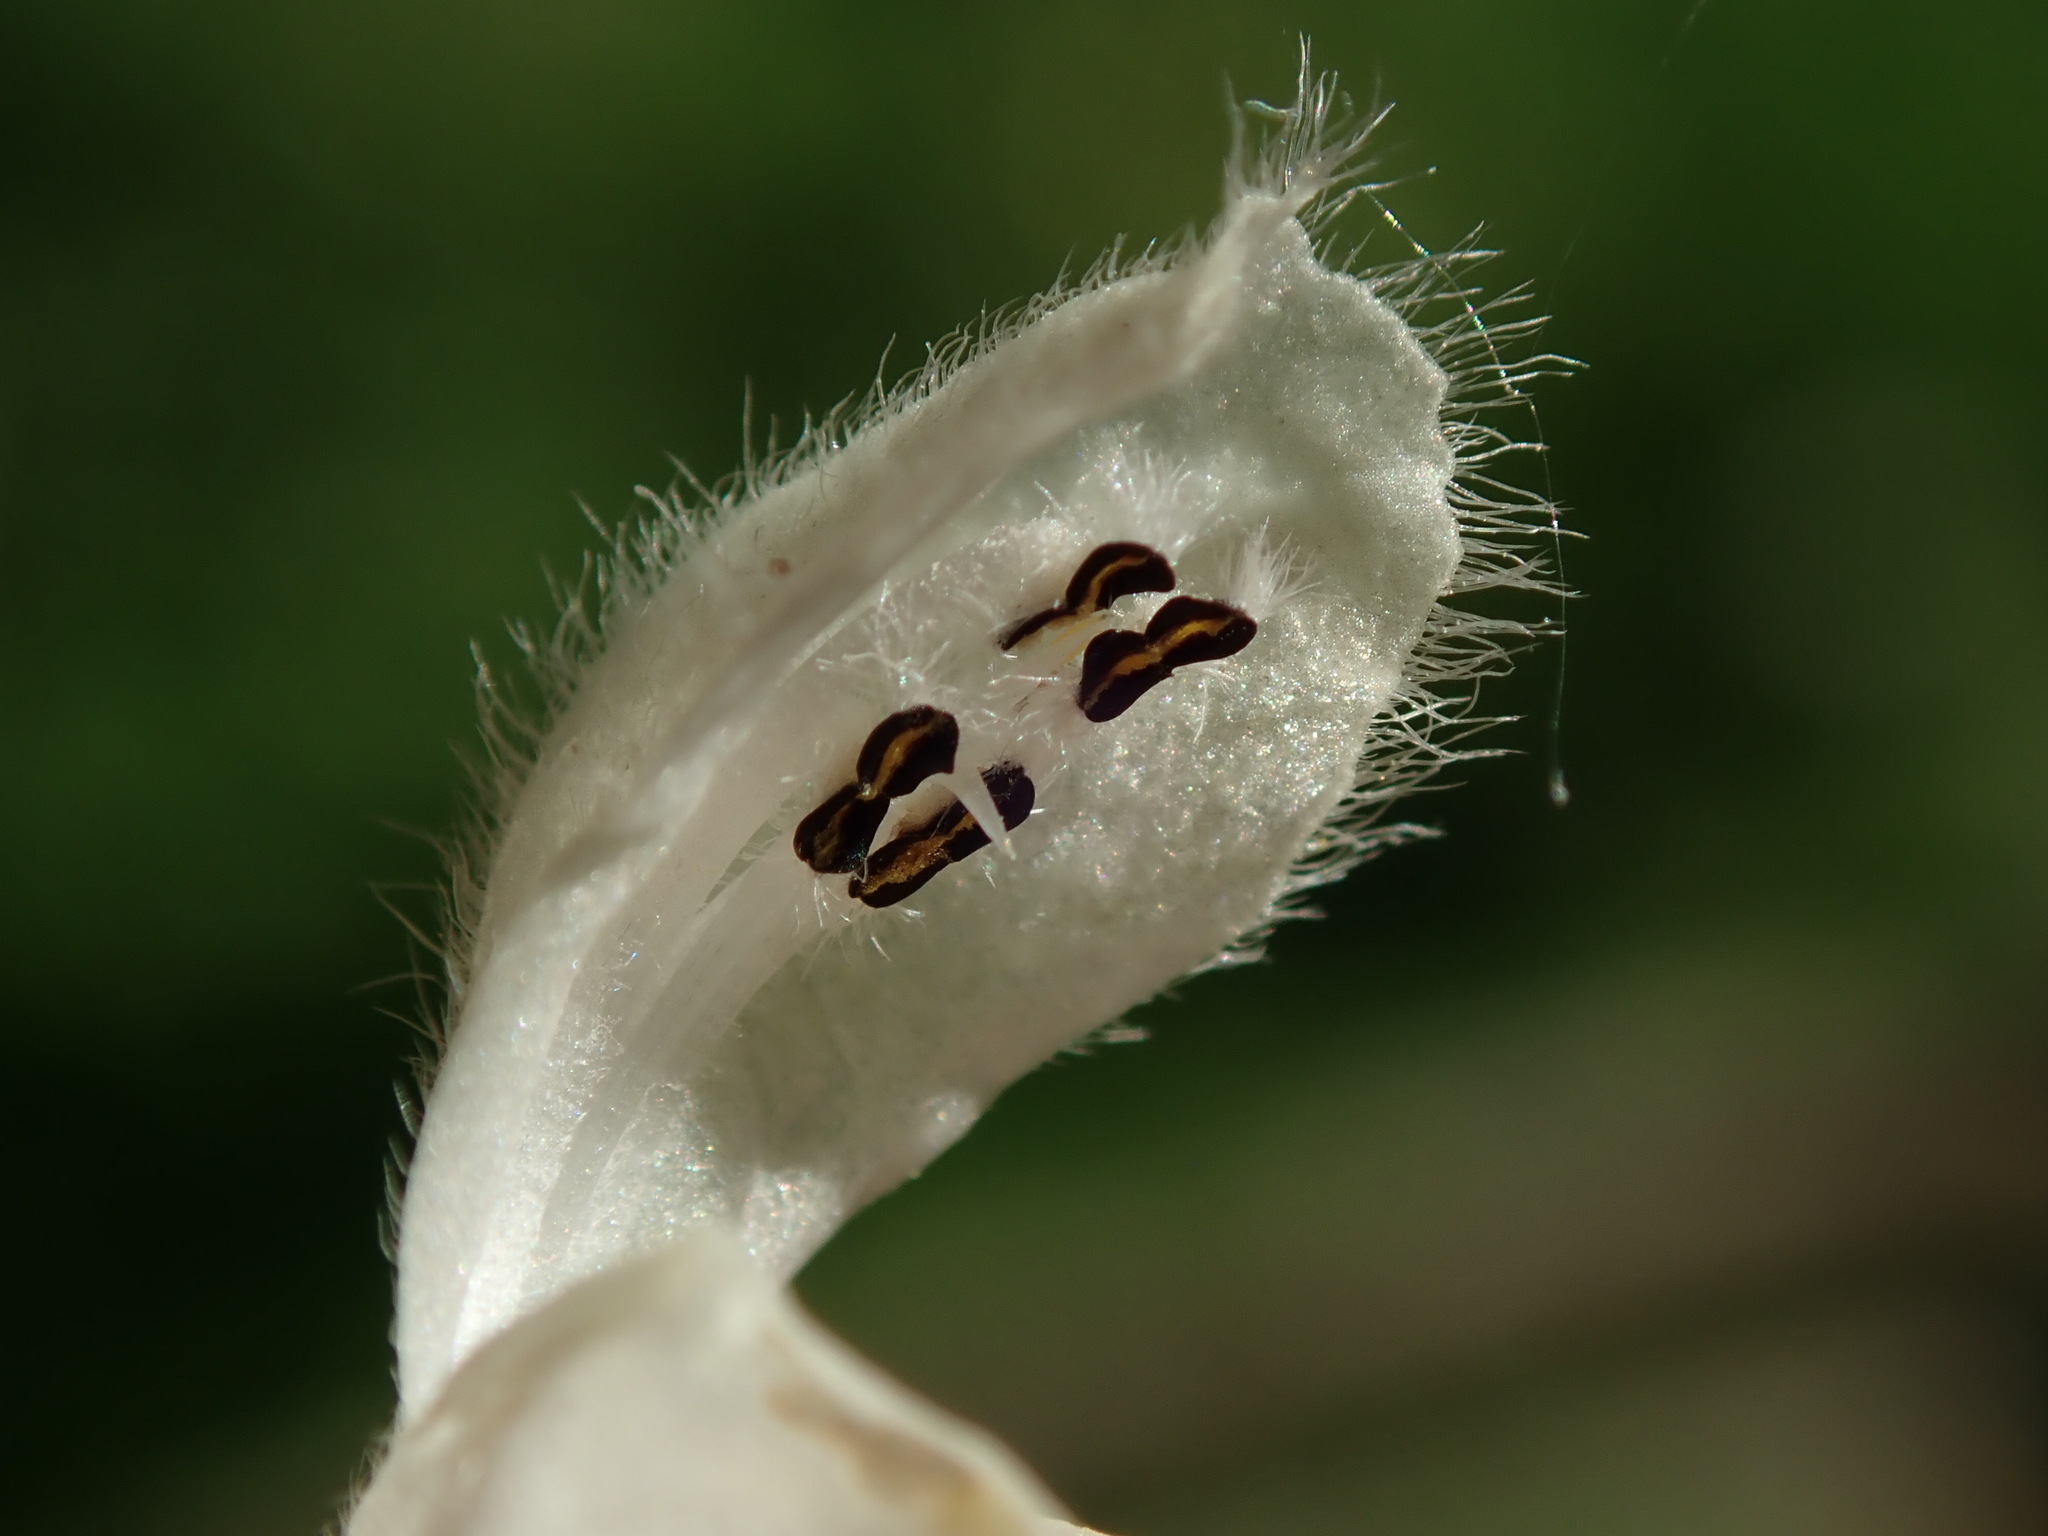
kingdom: Plantae
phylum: Tracheophyta
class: Magnoliopsida
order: Lamiales
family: Lamiaceae
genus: Lamium
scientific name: Lamium album
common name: White dead-nettle
